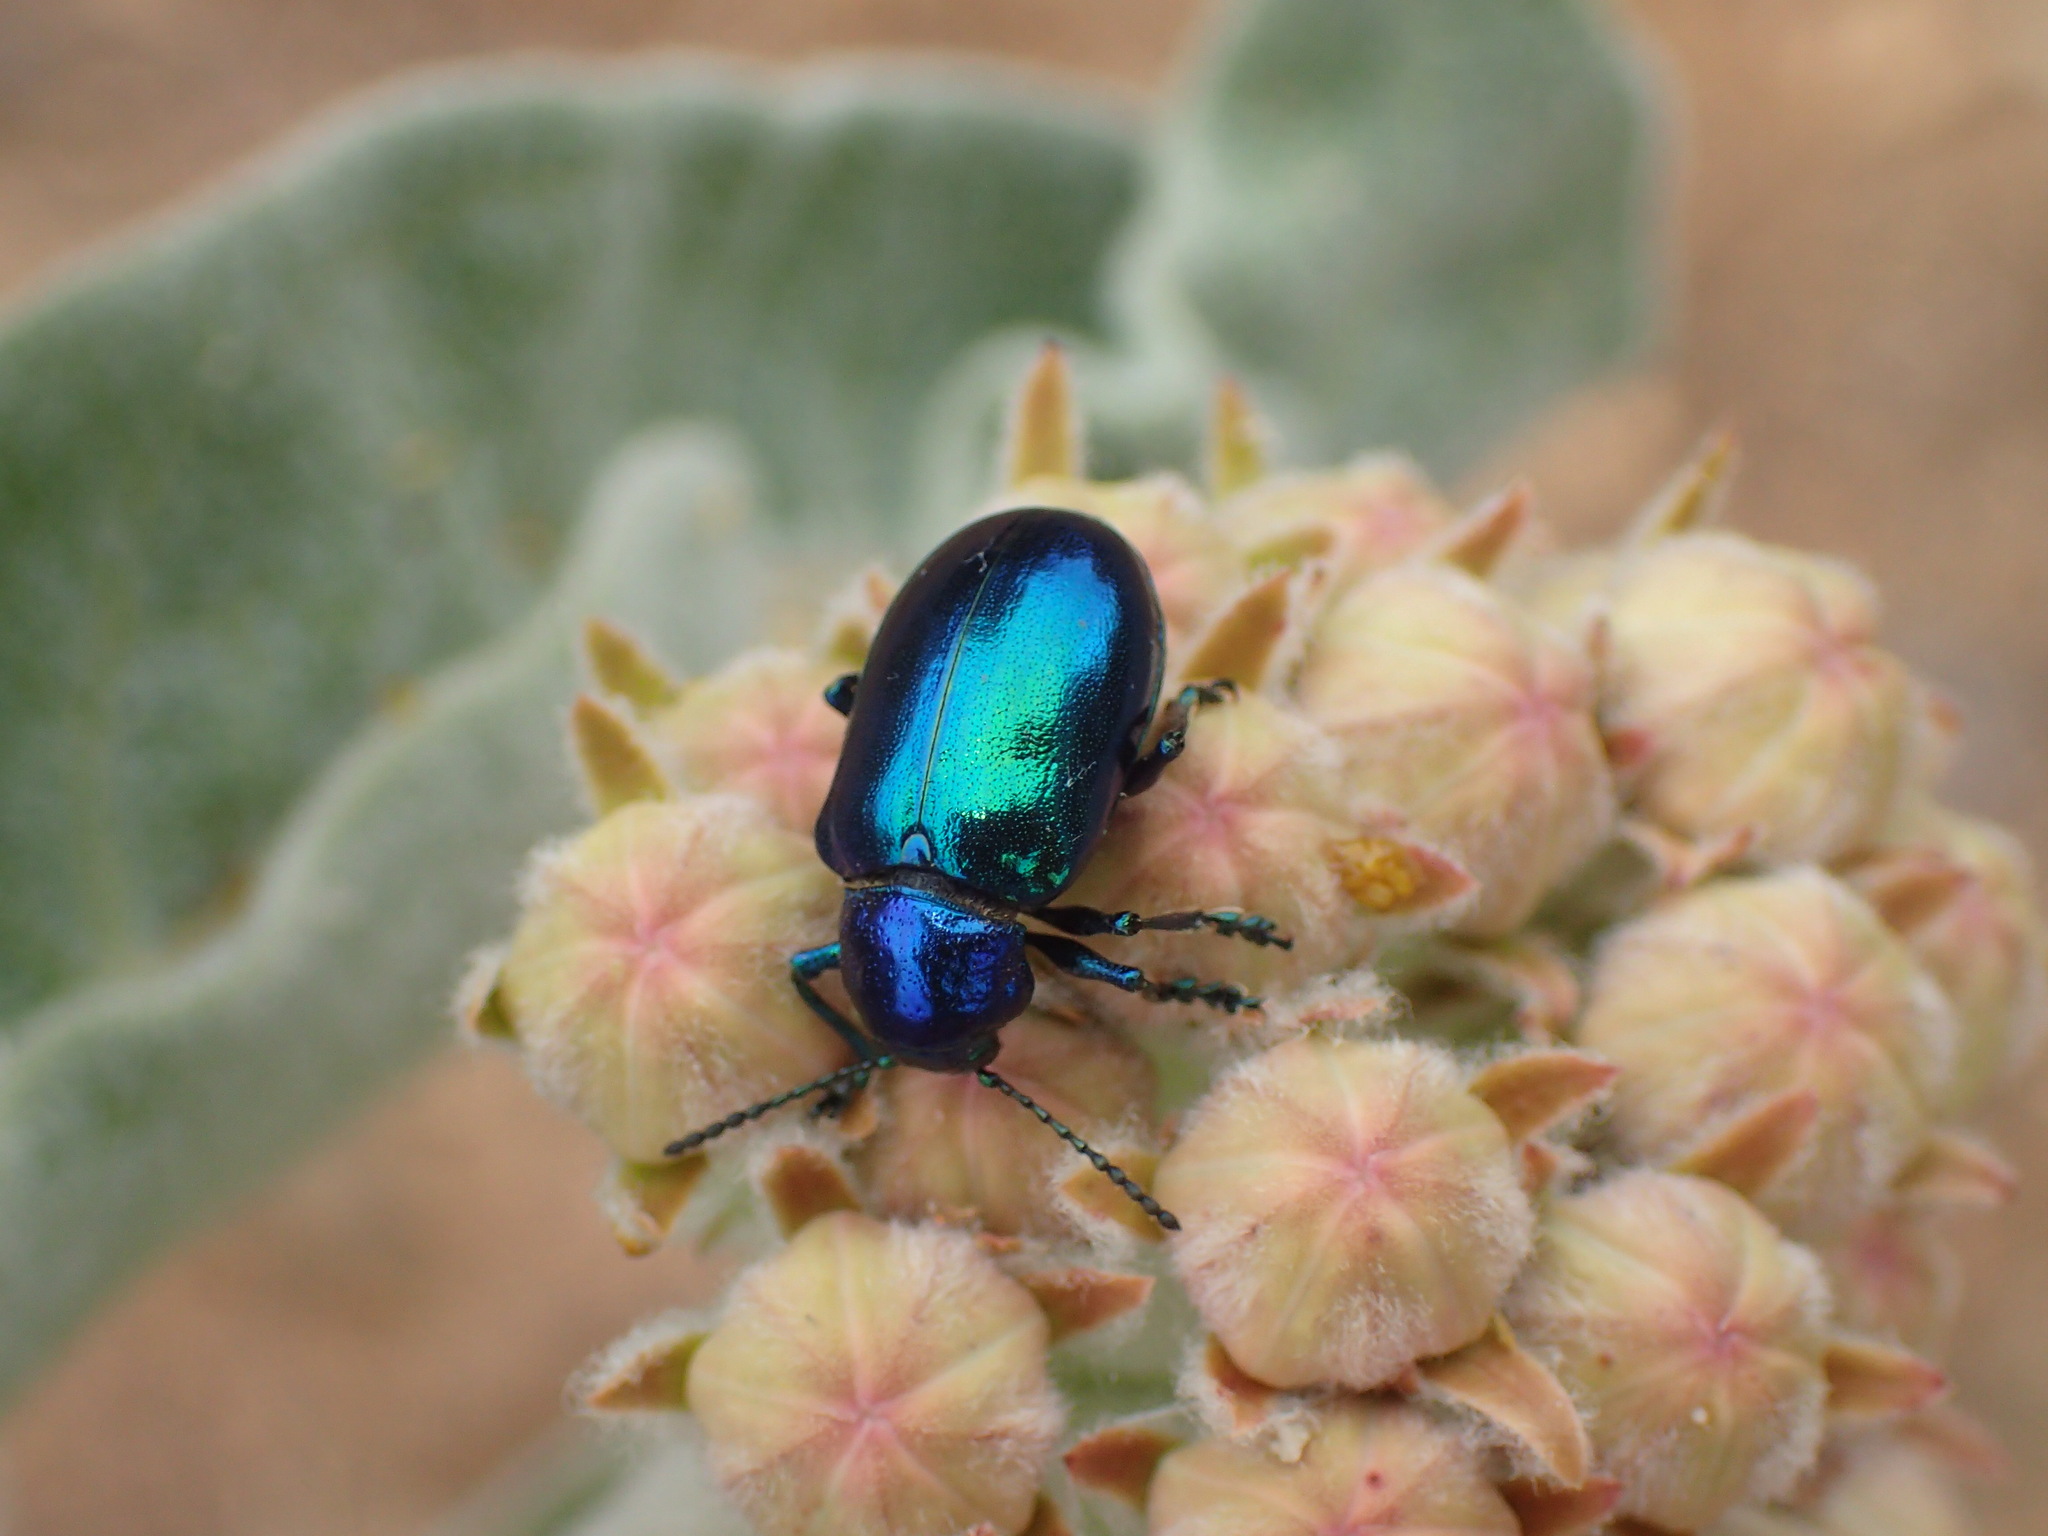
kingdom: Animalia
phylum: Arthropoda
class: Insecta
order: Coleoptera
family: Chrysomelidae
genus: Chrysochus
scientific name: Chrysochus cobaltinus
